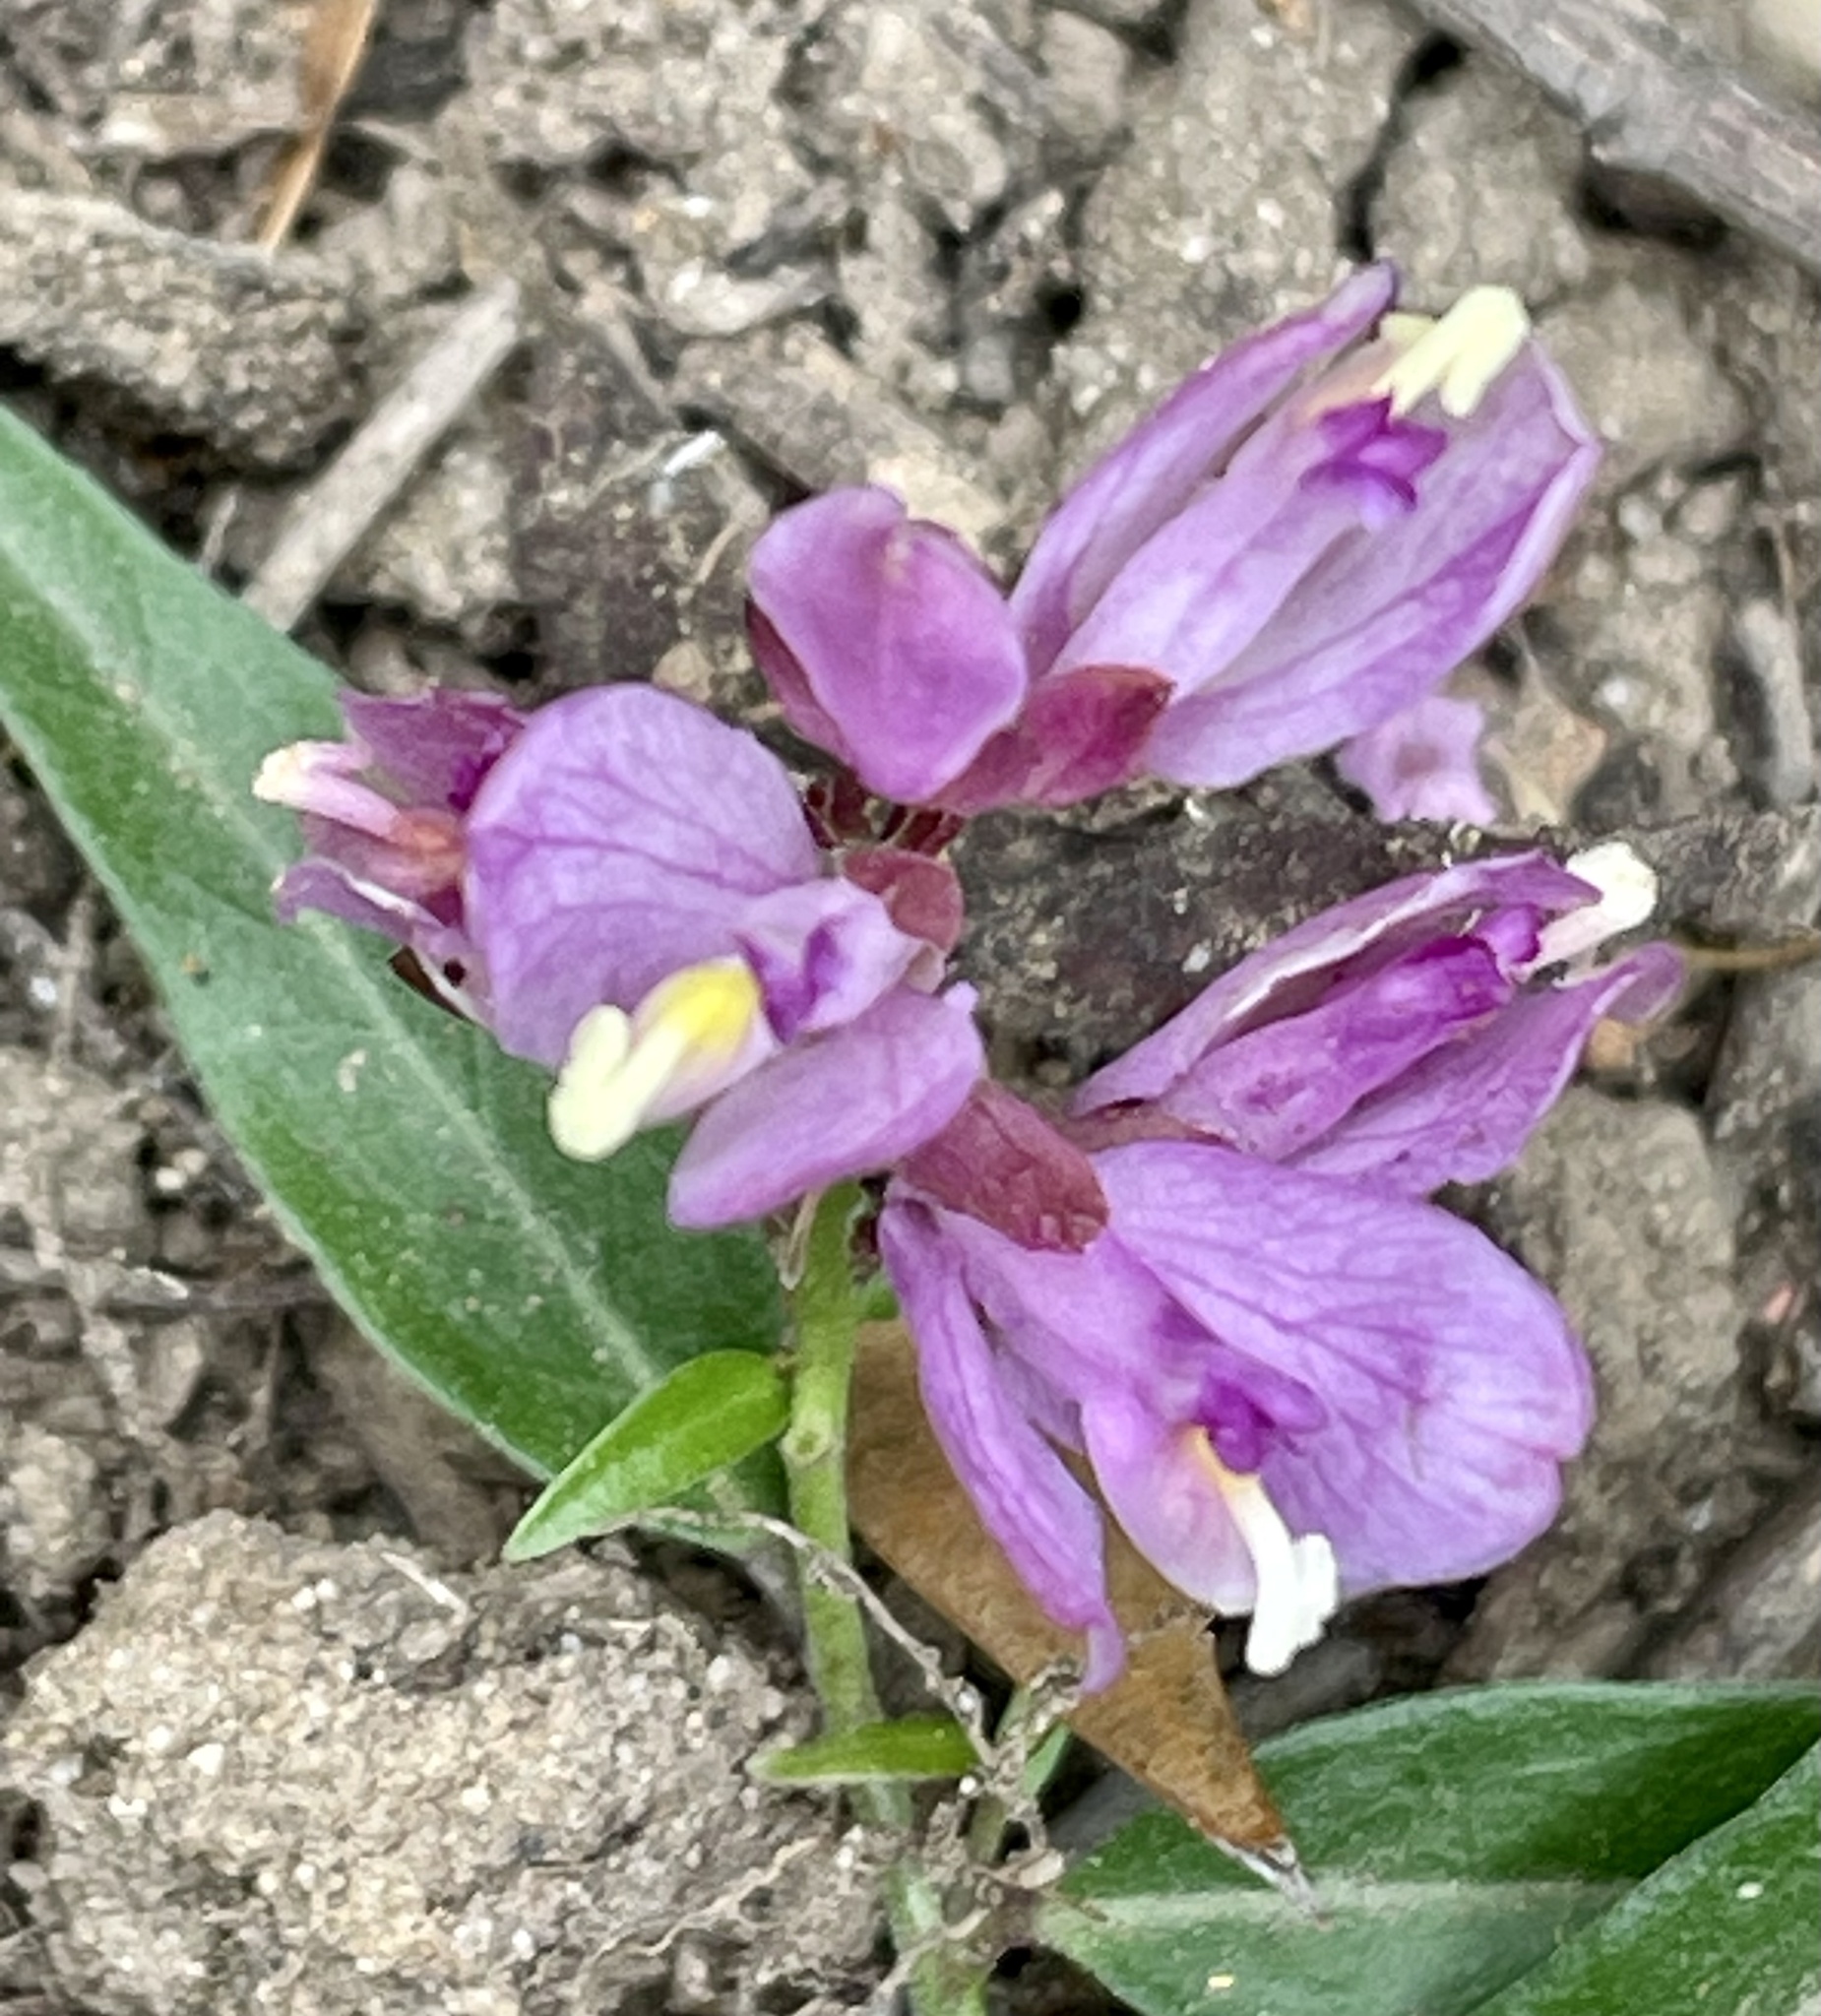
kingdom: Plantae
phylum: Tracheophyta
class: Magnoliopsida
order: Fabales
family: Polygalaceae
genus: Rhinotropis
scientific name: Rhinotropis californica
